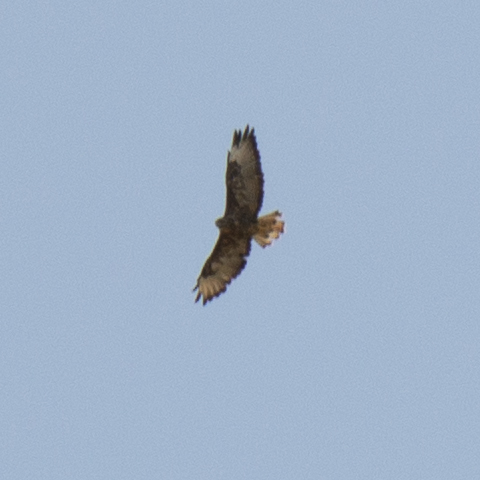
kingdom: Animalia
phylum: Chordata
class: Aves
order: Accipitriformes
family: Accipitridae
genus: Buteo
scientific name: Buteo buteo
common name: Common buzzard
